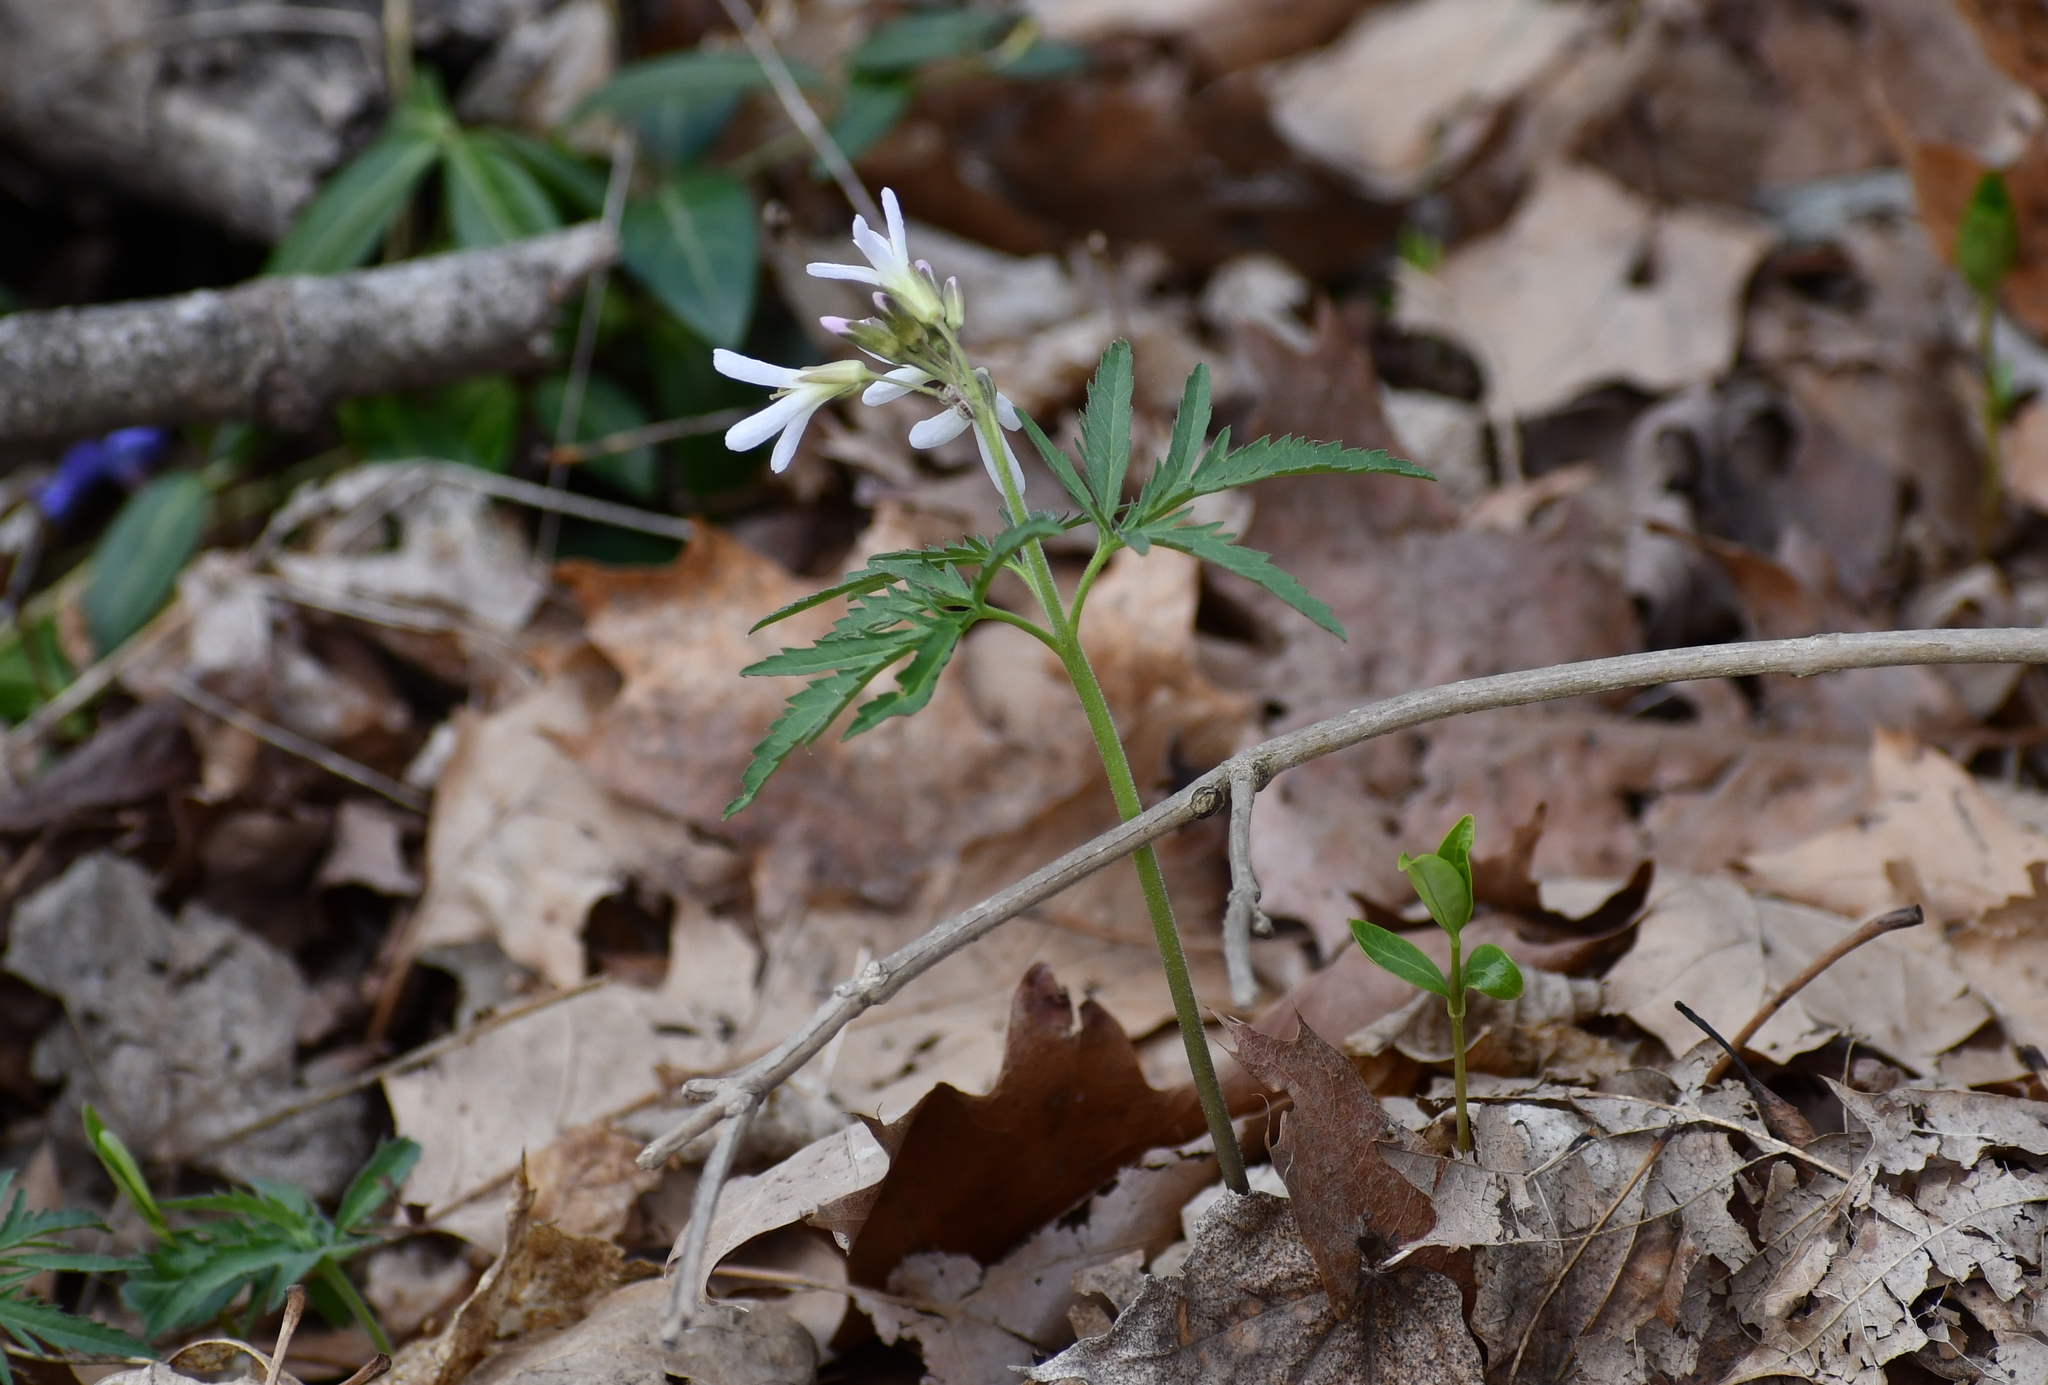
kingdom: Plantae
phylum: Tracheophyta
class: Magnoliopsida
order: Brassicales
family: Brassicaceae
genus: Cardamine
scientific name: Cardamine concatenata
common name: Cut-leaf toothcup
